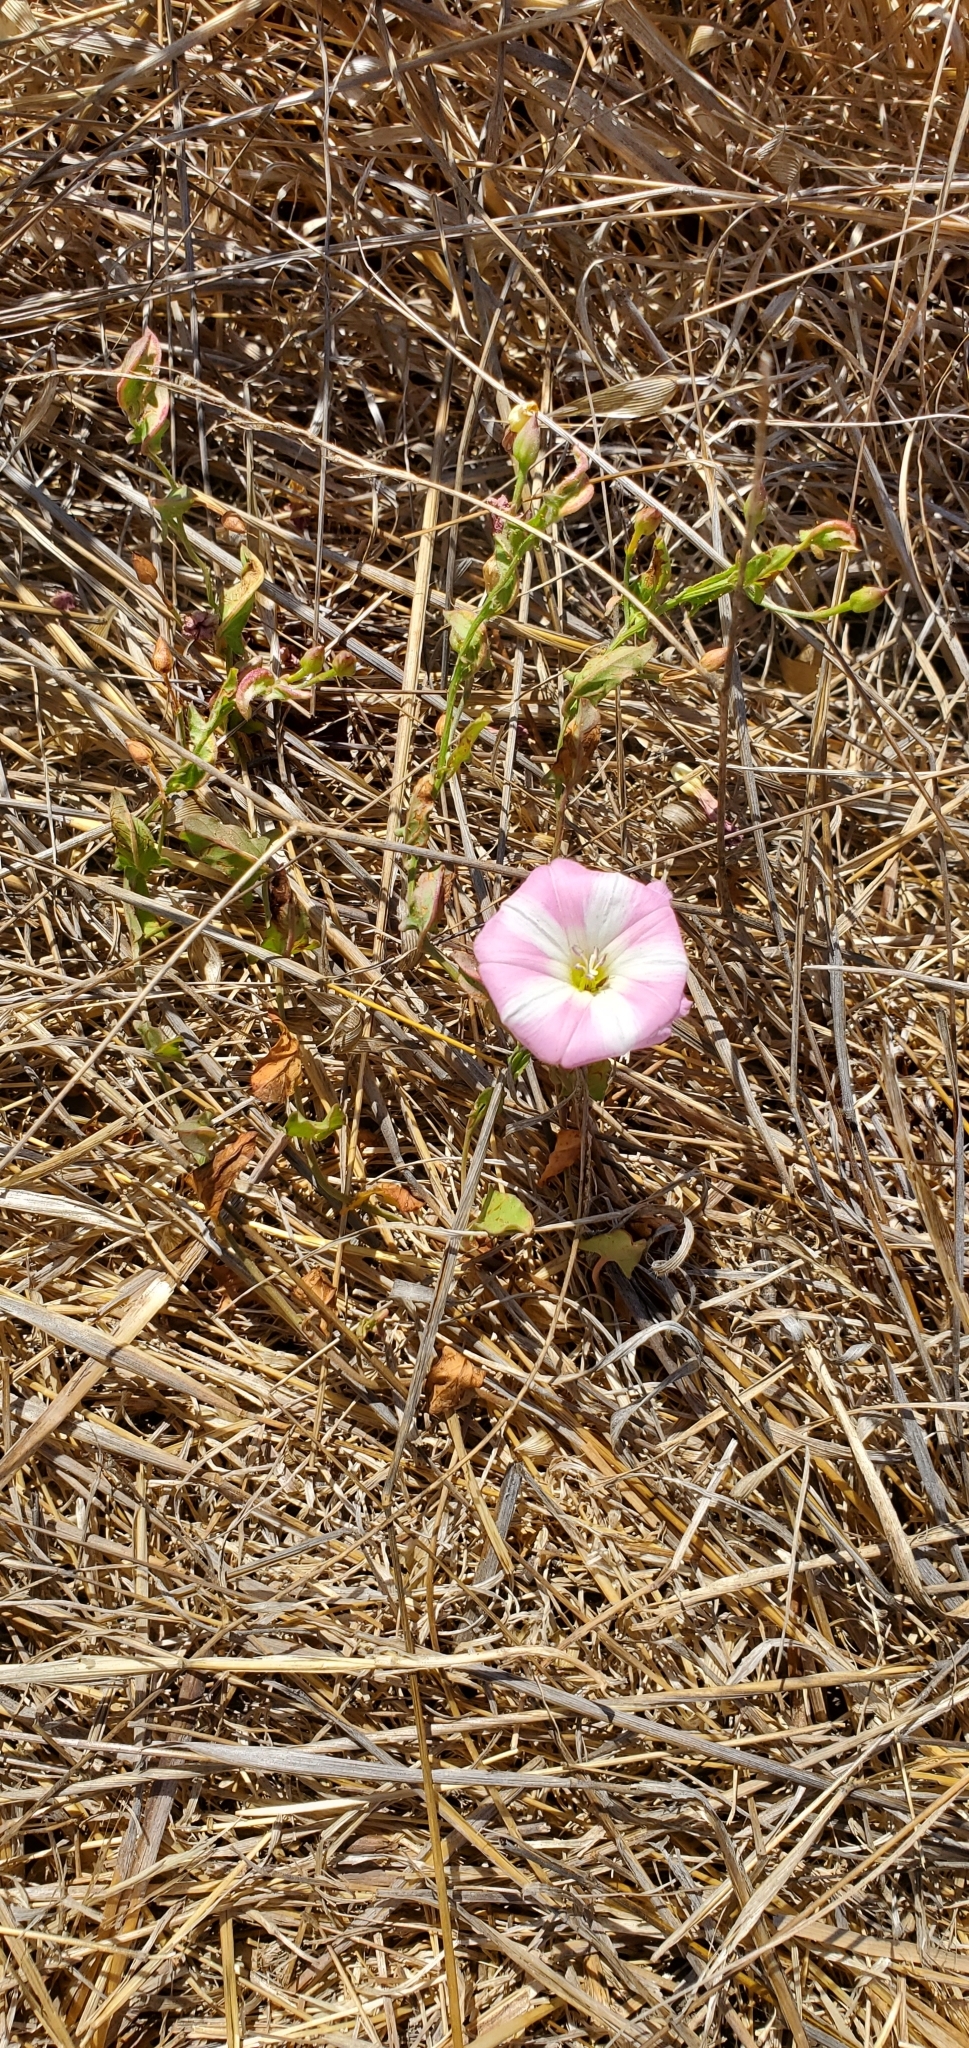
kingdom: Plantae
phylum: Tracheophyta
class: Magnoliopsida
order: Solanales
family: Convolvulaceae
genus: Convolvulus
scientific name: Convolvulus arvensis
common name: Field bindweed
